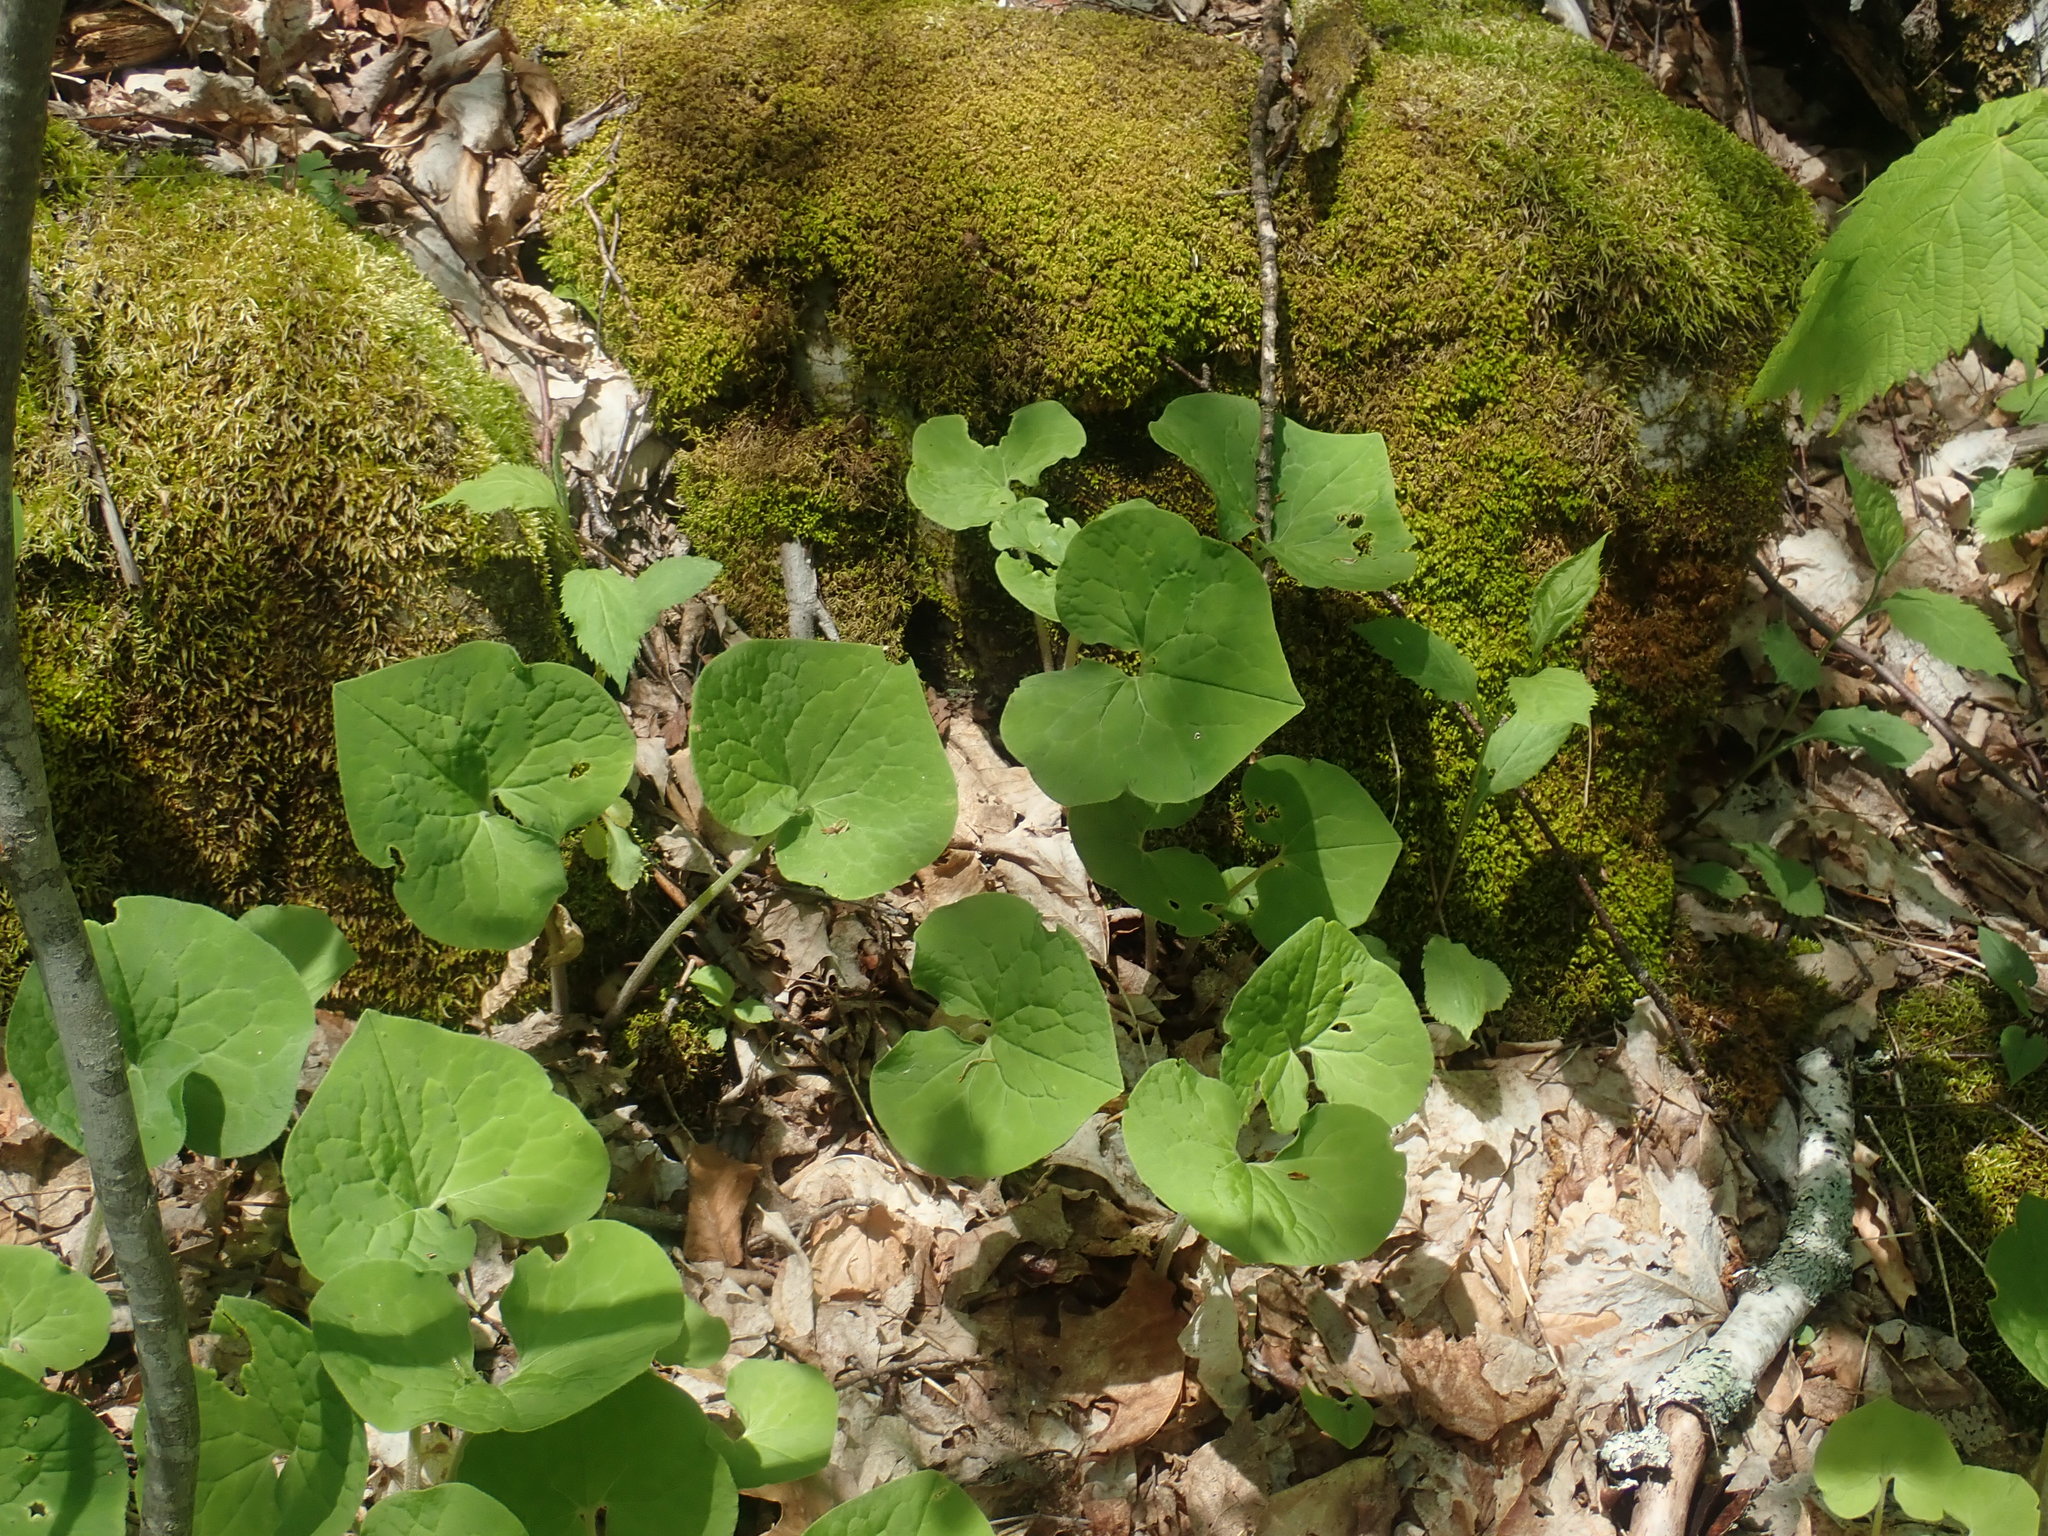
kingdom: Plantae
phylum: Tracheophyta
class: Magnoliopsida
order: Piperales
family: Aristolochiaceae
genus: Asarum
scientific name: Asarum canadense
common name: Wild ginger
